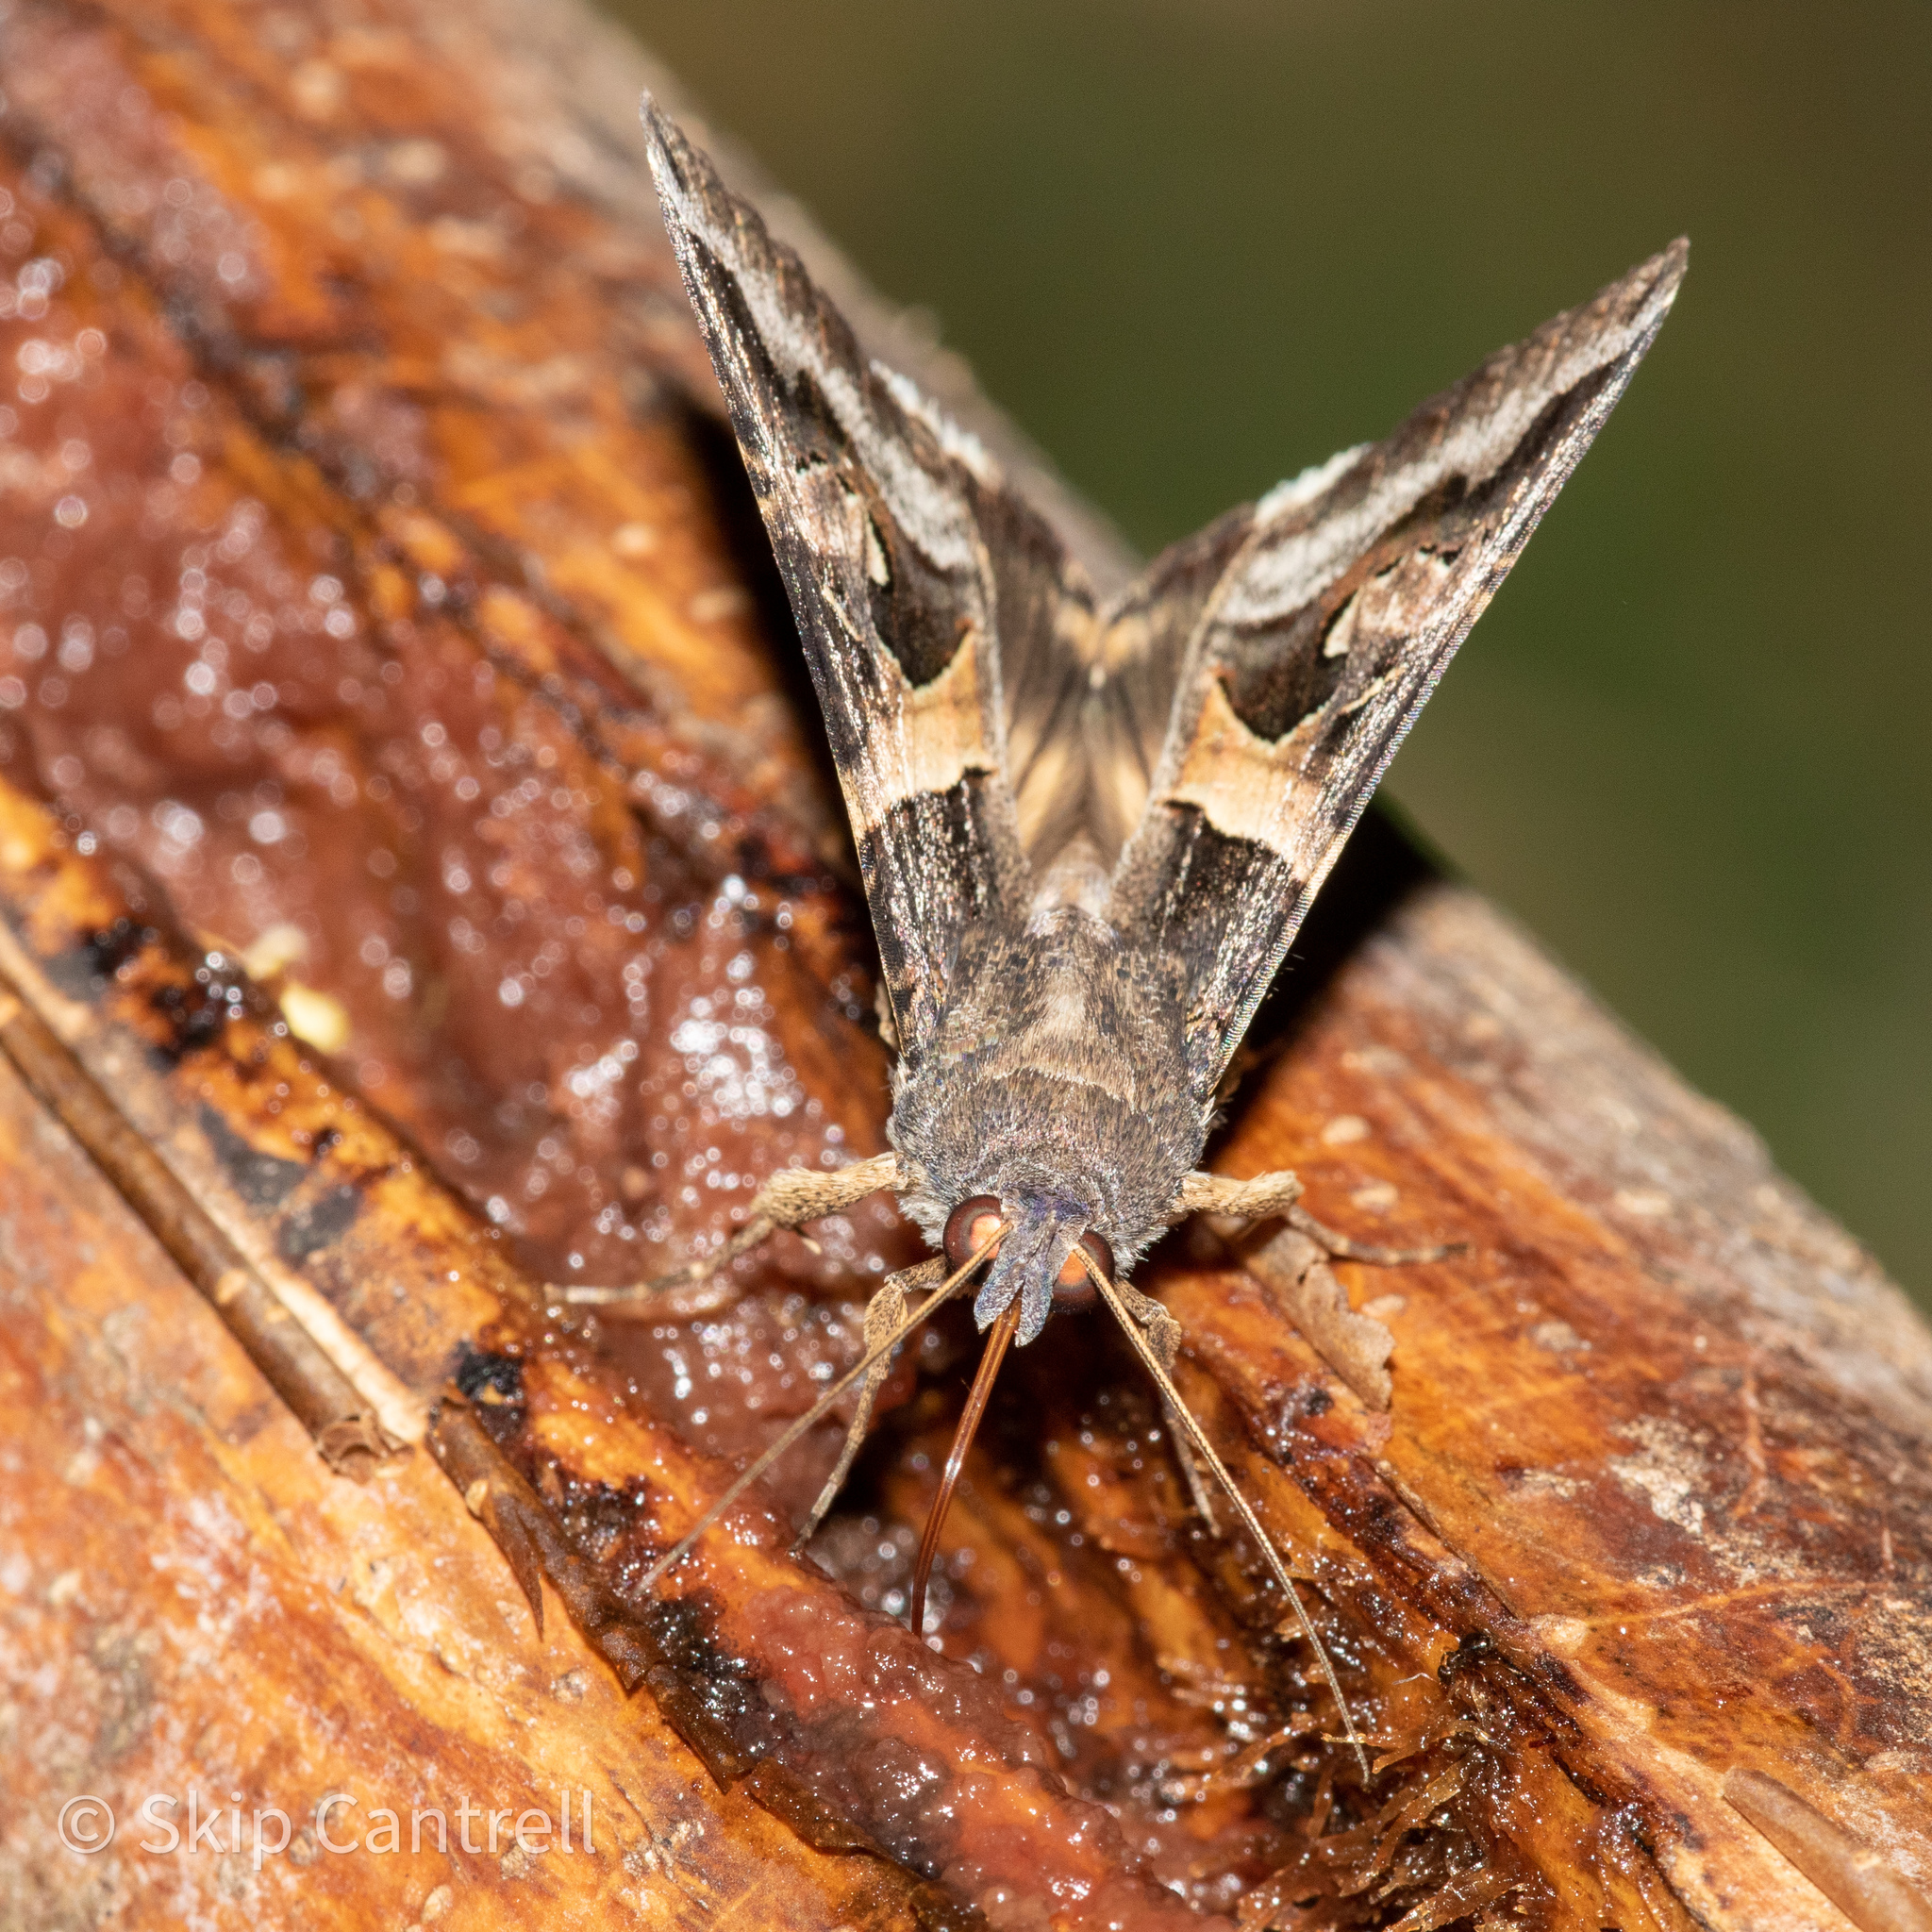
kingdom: Animalia
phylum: Arthropoda
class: Insecta
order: Lepidoptera
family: Erebidae
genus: Melipotis
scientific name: Melipotis indomita
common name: Moth
